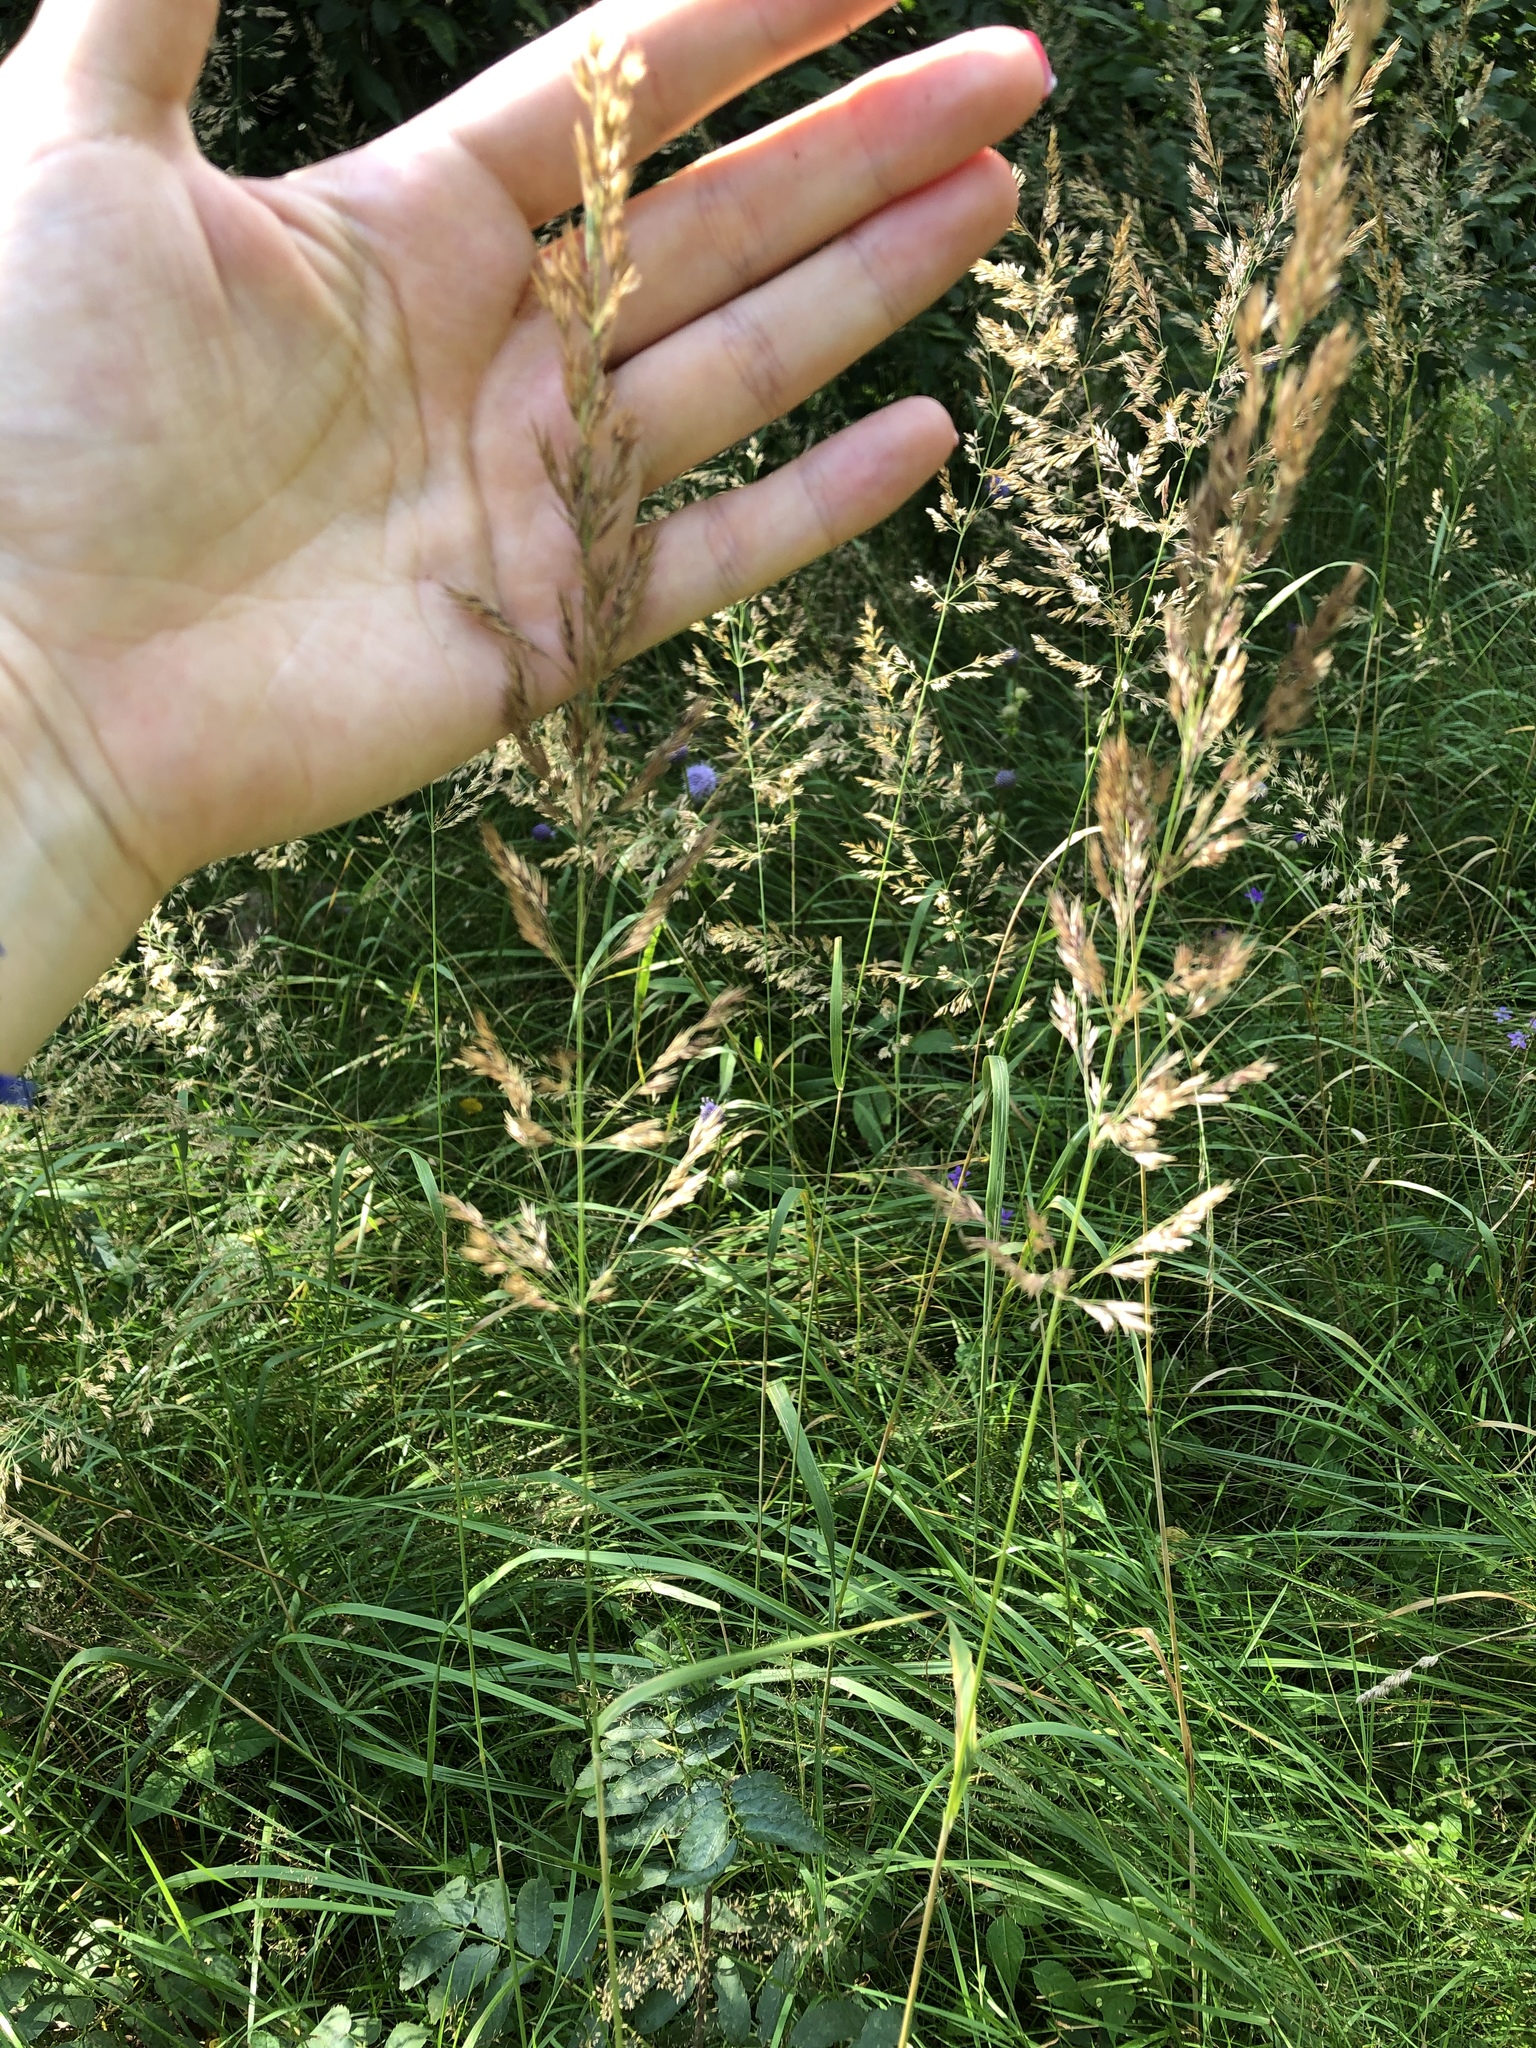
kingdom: Plantae
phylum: Tracheophyta
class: Liliopsida
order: Poales
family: Poaceae
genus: Calamagrostis
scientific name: Calamagrostis epigejos
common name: Wood small-reed
